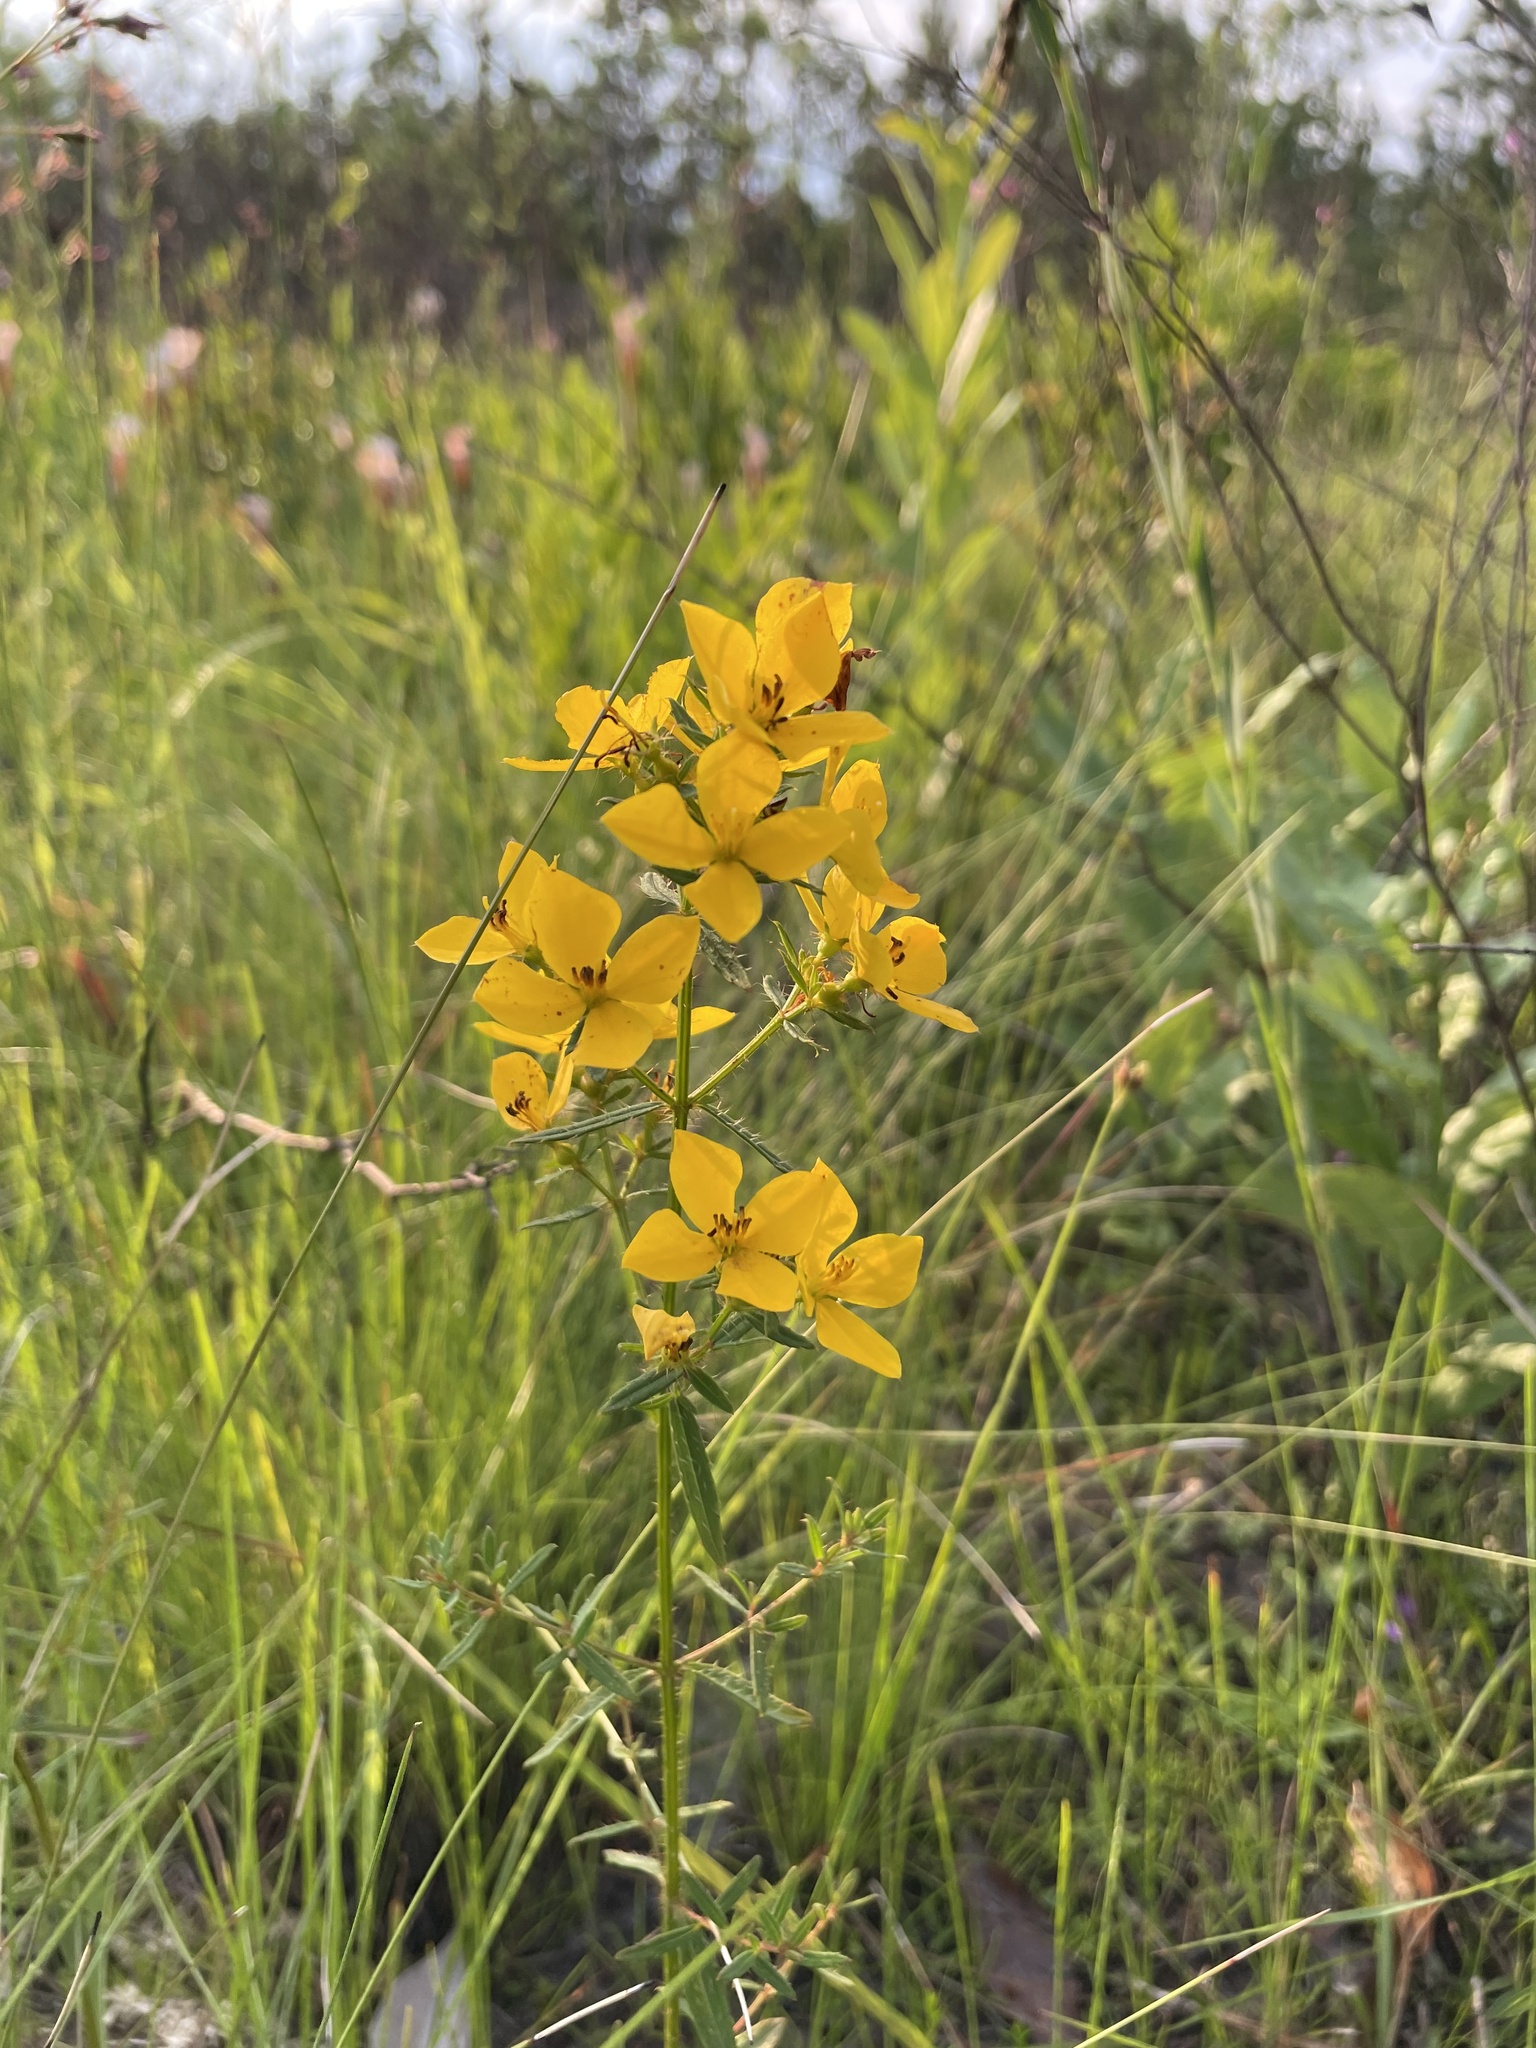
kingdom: Plantae
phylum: Tracheophyta
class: Magnoliopsida
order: Myrtales
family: Melastomataceae
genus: Rhexia
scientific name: Rhexia lutea
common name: Golden meadow-beauty
